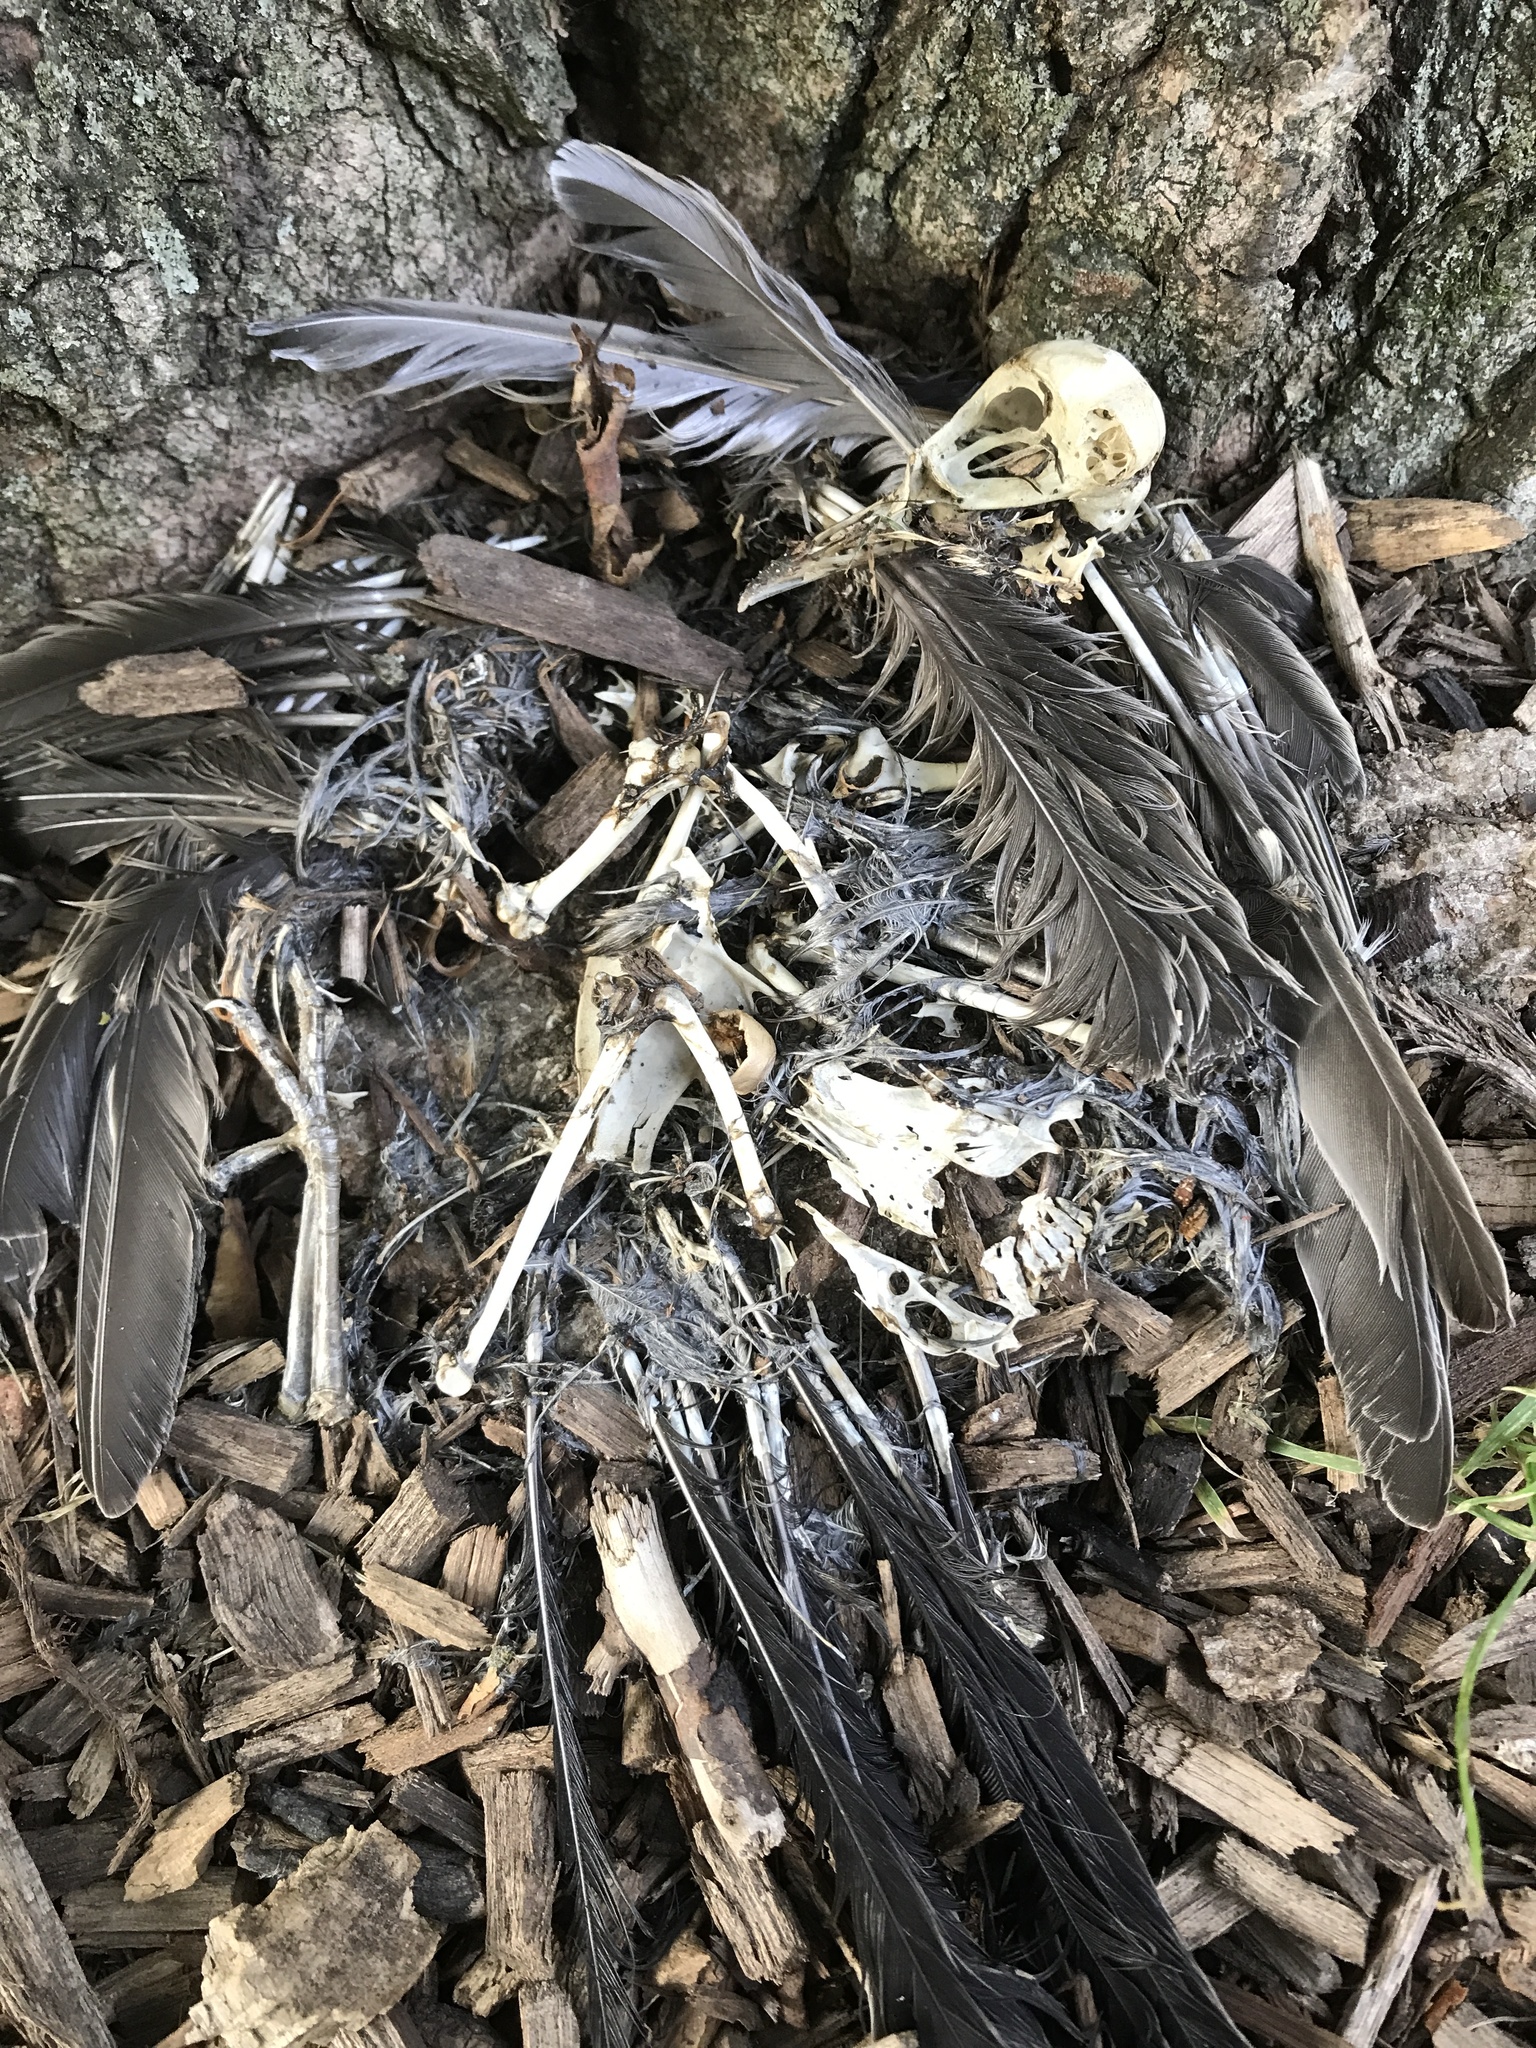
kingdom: Animalia
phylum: Chordata
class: Aves
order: Passeriformes
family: Turdidae
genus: Turdus
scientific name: Turdus migratorius
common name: American robin
